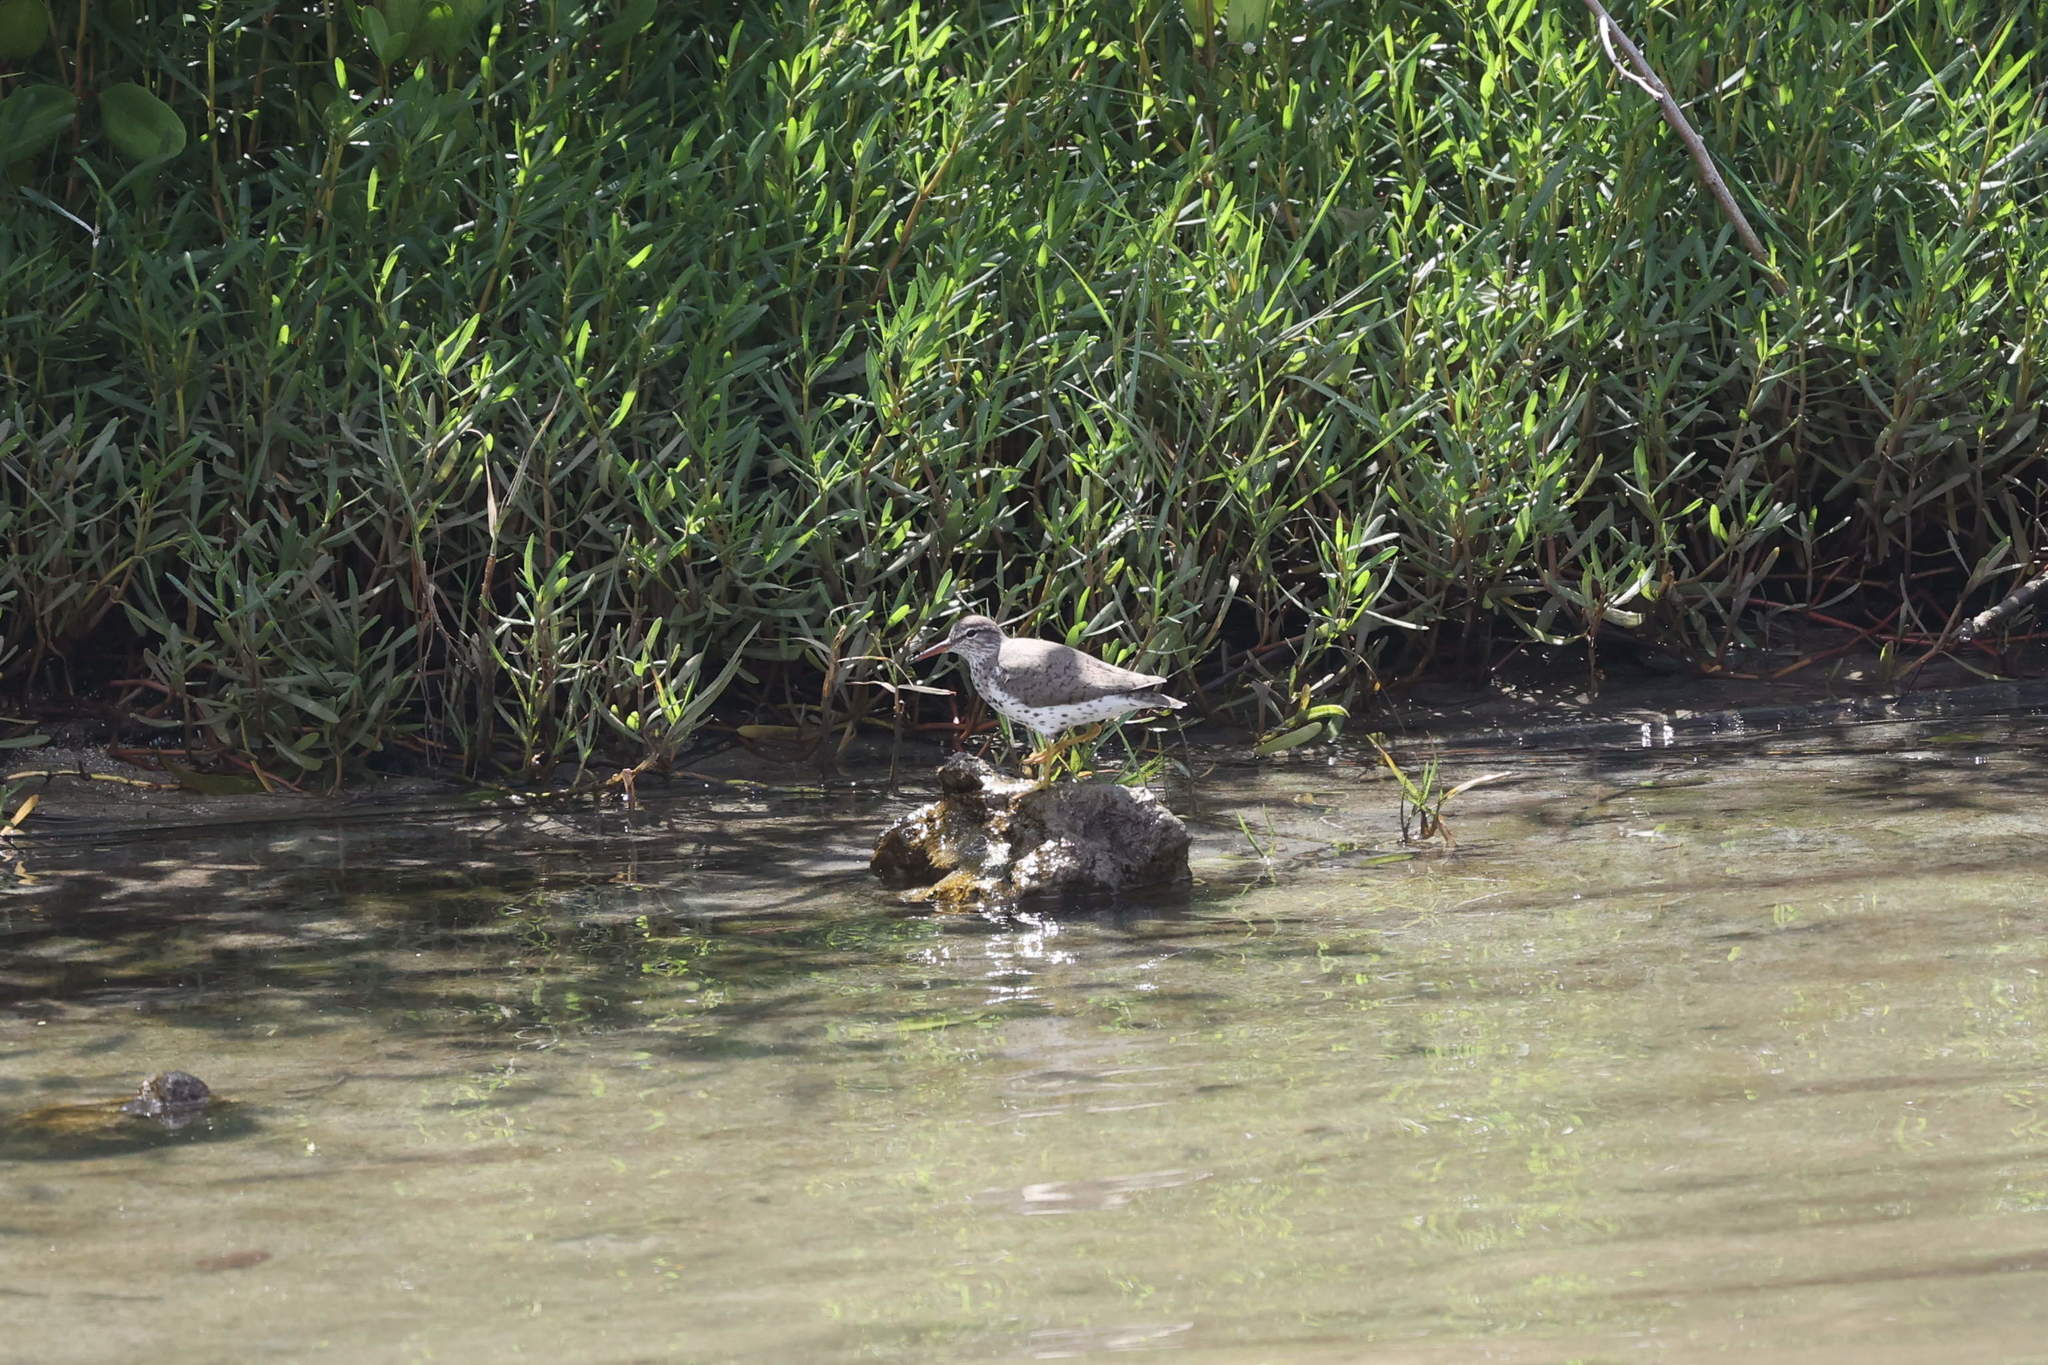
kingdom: Animalia
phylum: Chordata
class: Aves
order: Charadriiformes
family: Scolopacidae
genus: Actitis
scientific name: Actitis macularius
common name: Spotted sandpiper
